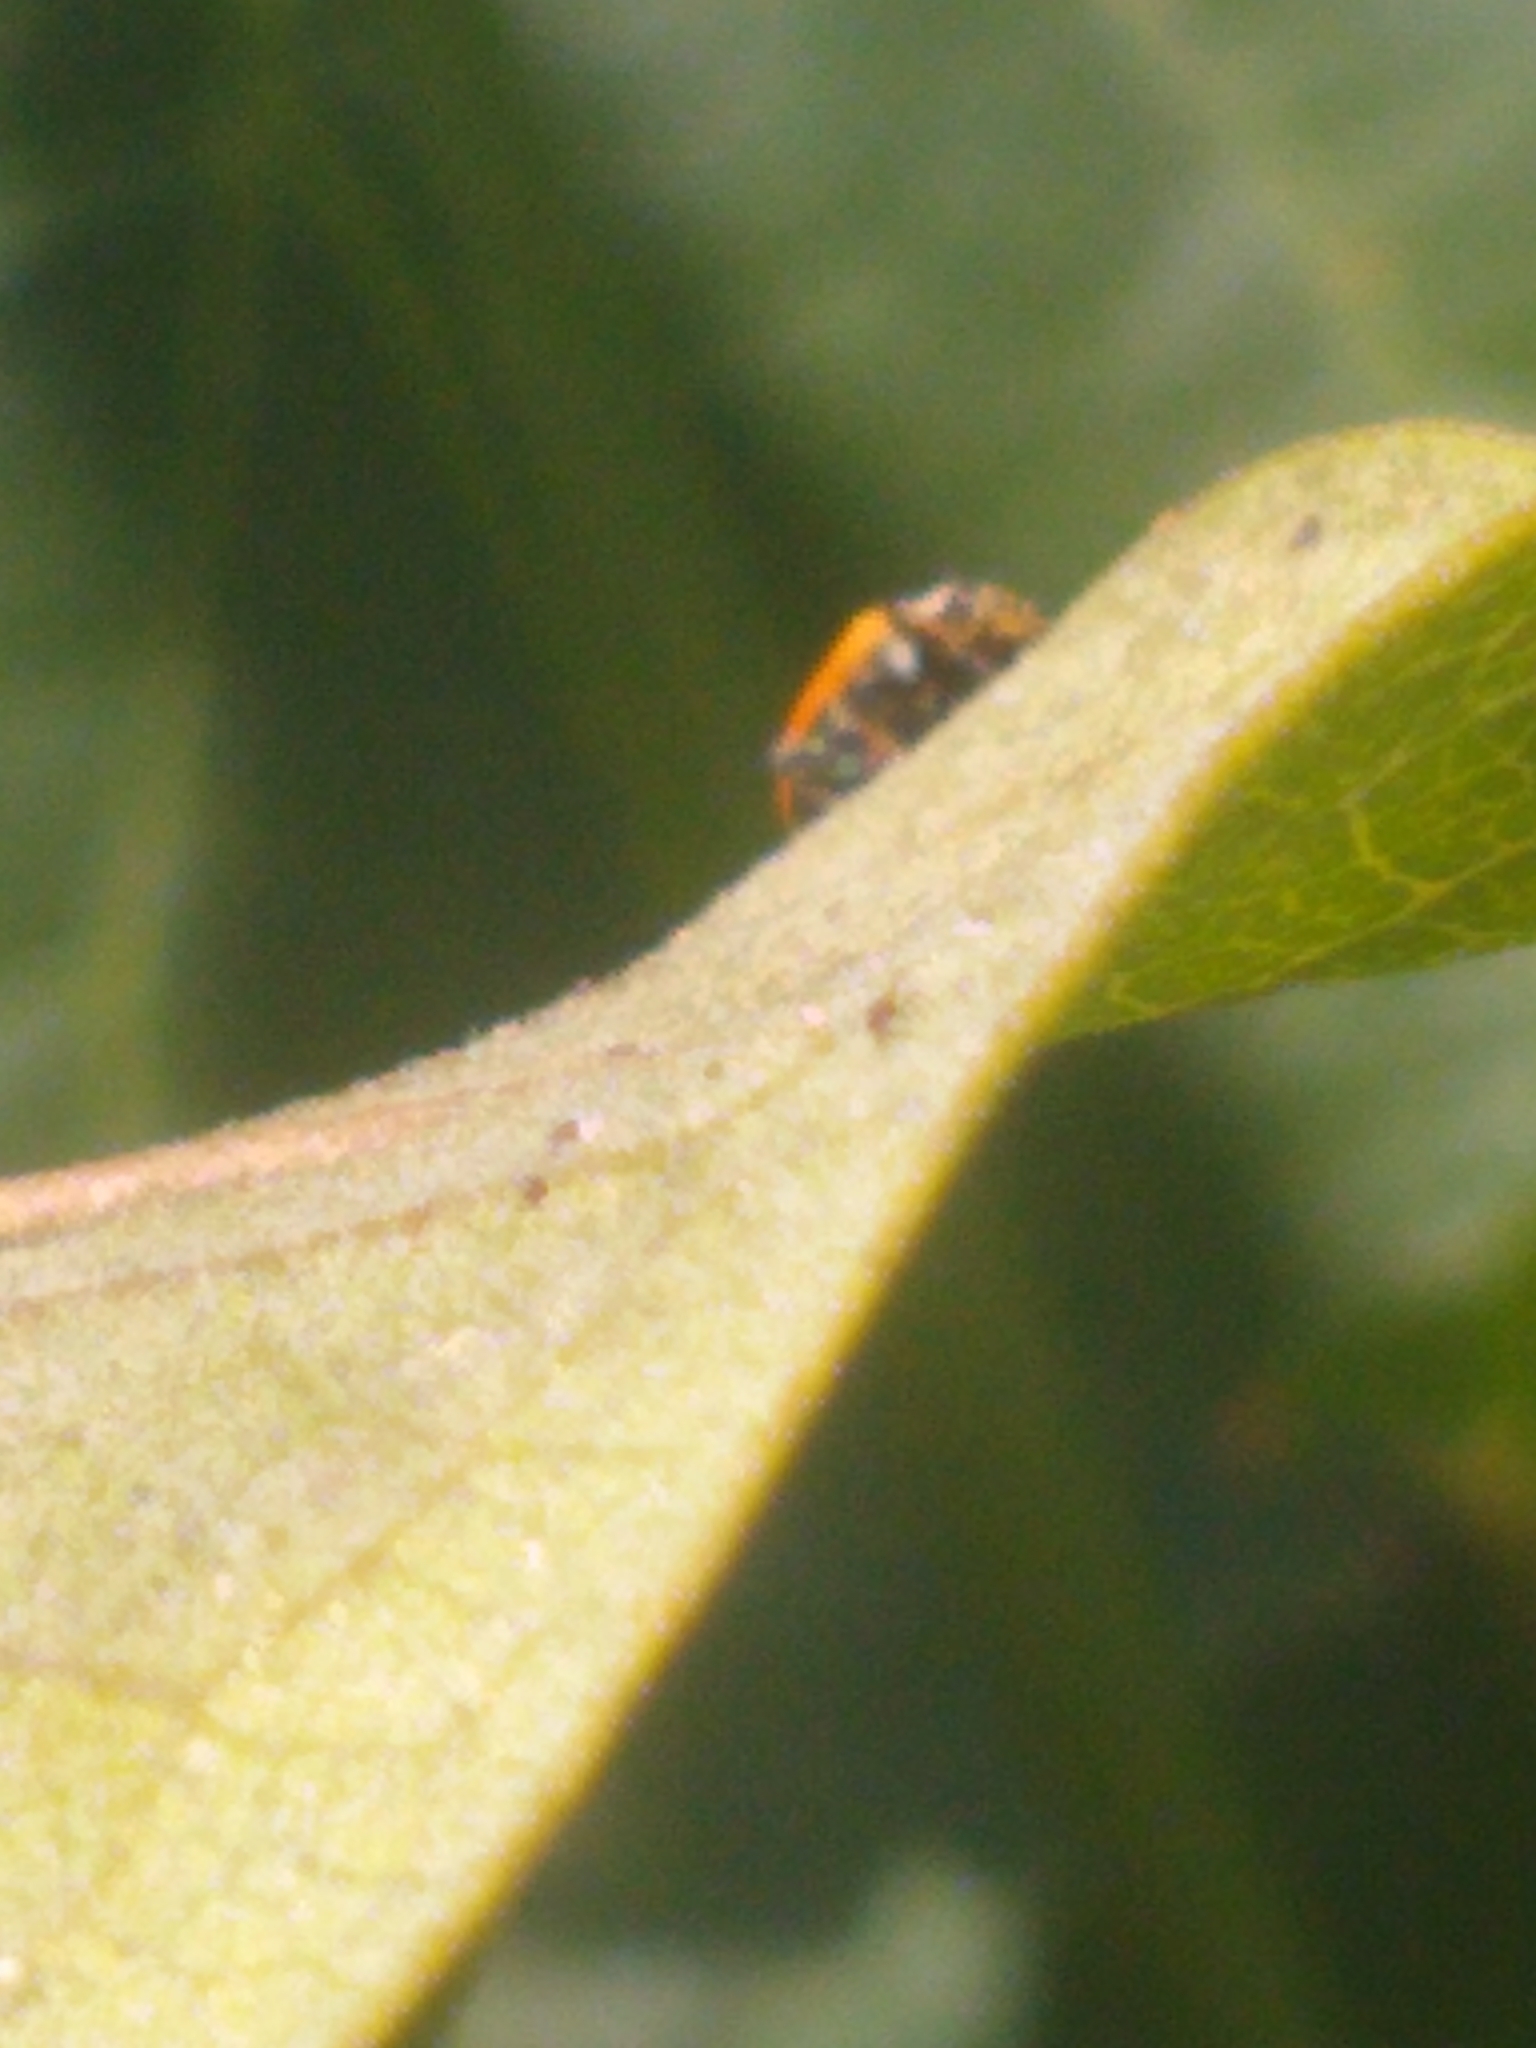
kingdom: Animalia
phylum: Arthropoda
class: Insecta
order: Coleoptera
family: Coccinellidae
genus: Hippodamia
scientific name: Hippodamia variegata
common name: Ladybird beetle
